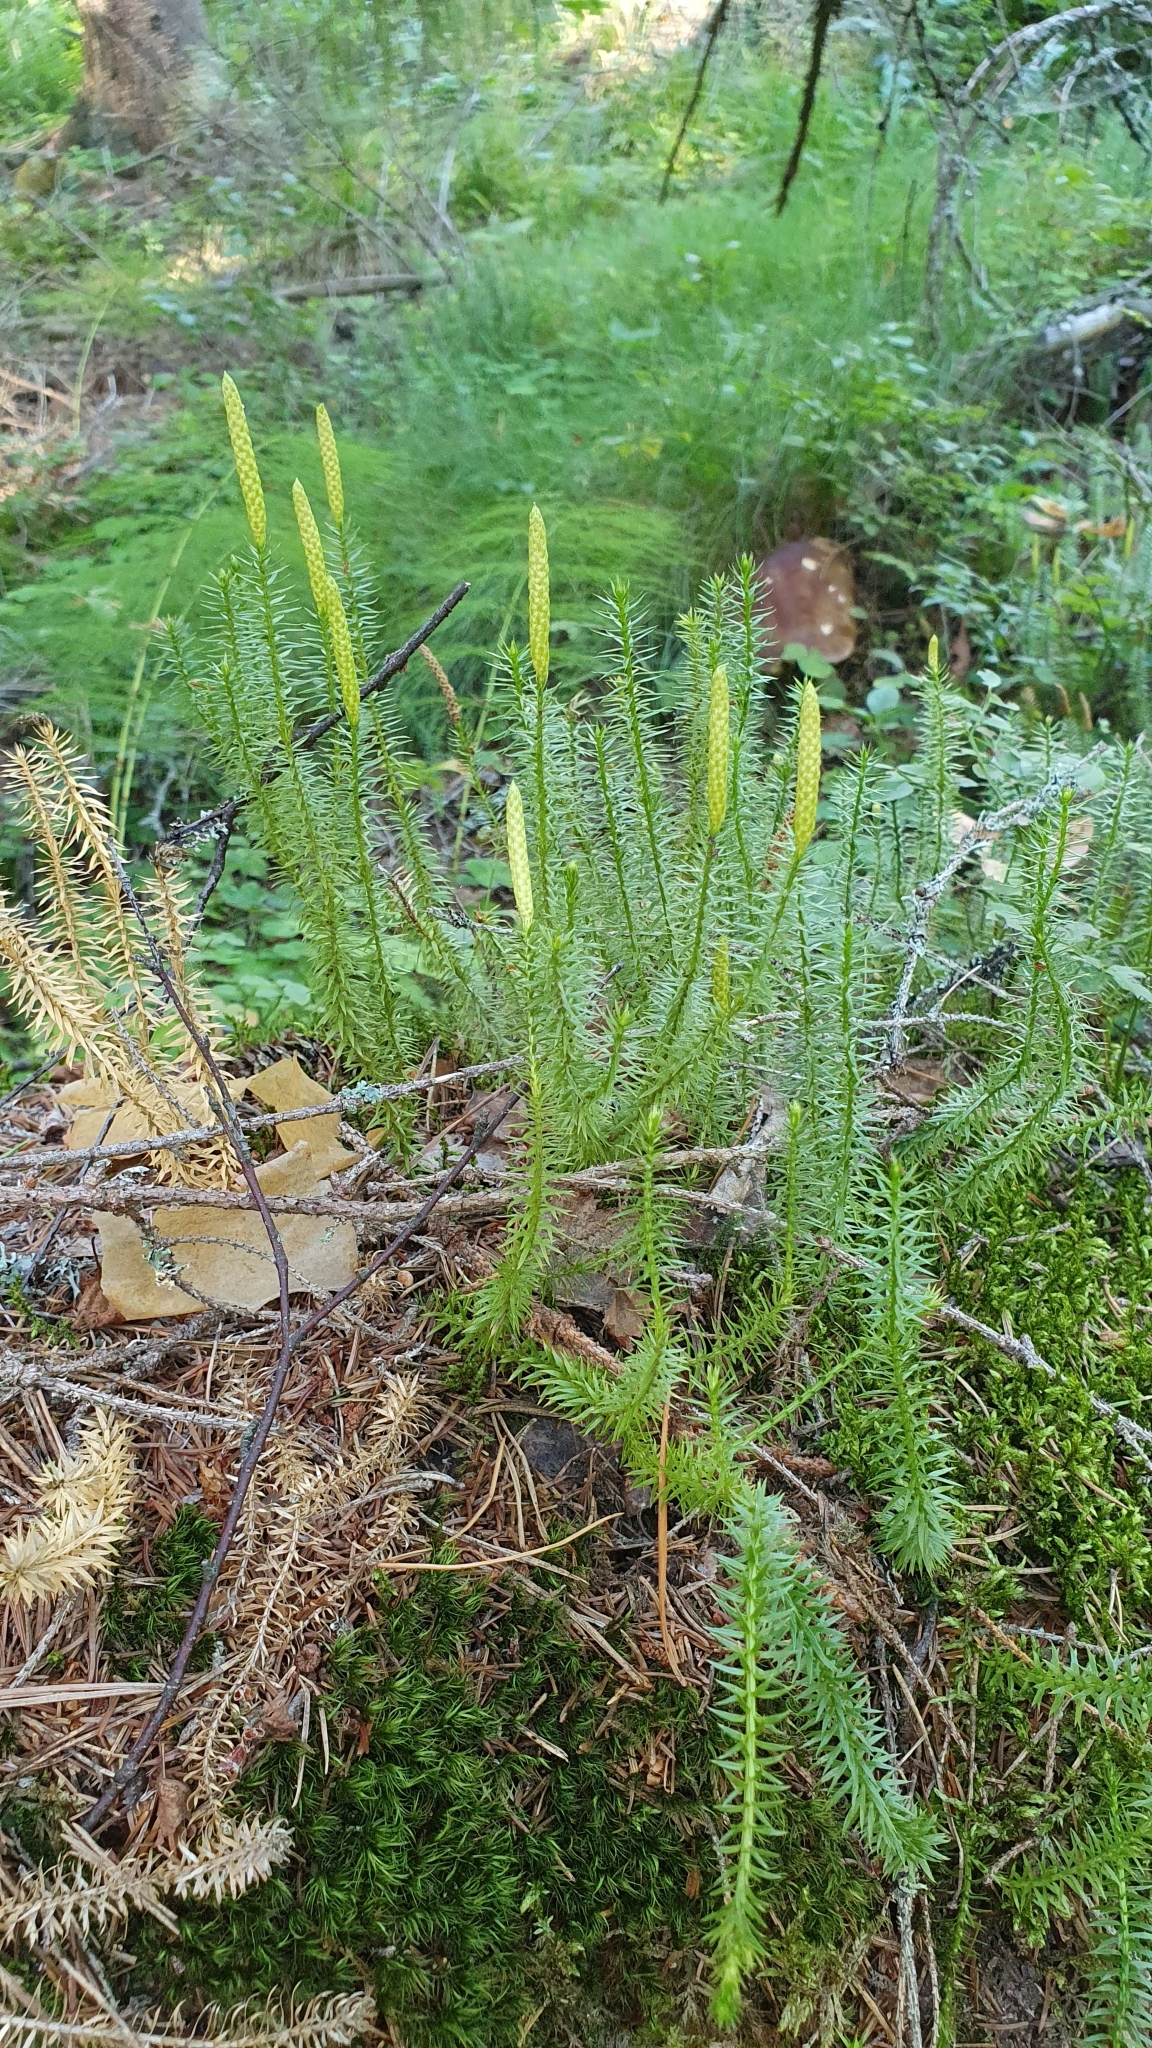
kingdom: Plantae
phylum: Tracheophyta
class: Lycopodiopsida
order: Lycopodiales
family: Lycopodiaceae
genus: Spinulum
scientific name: Spinulum annotinum
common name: Interrupted club-moss
